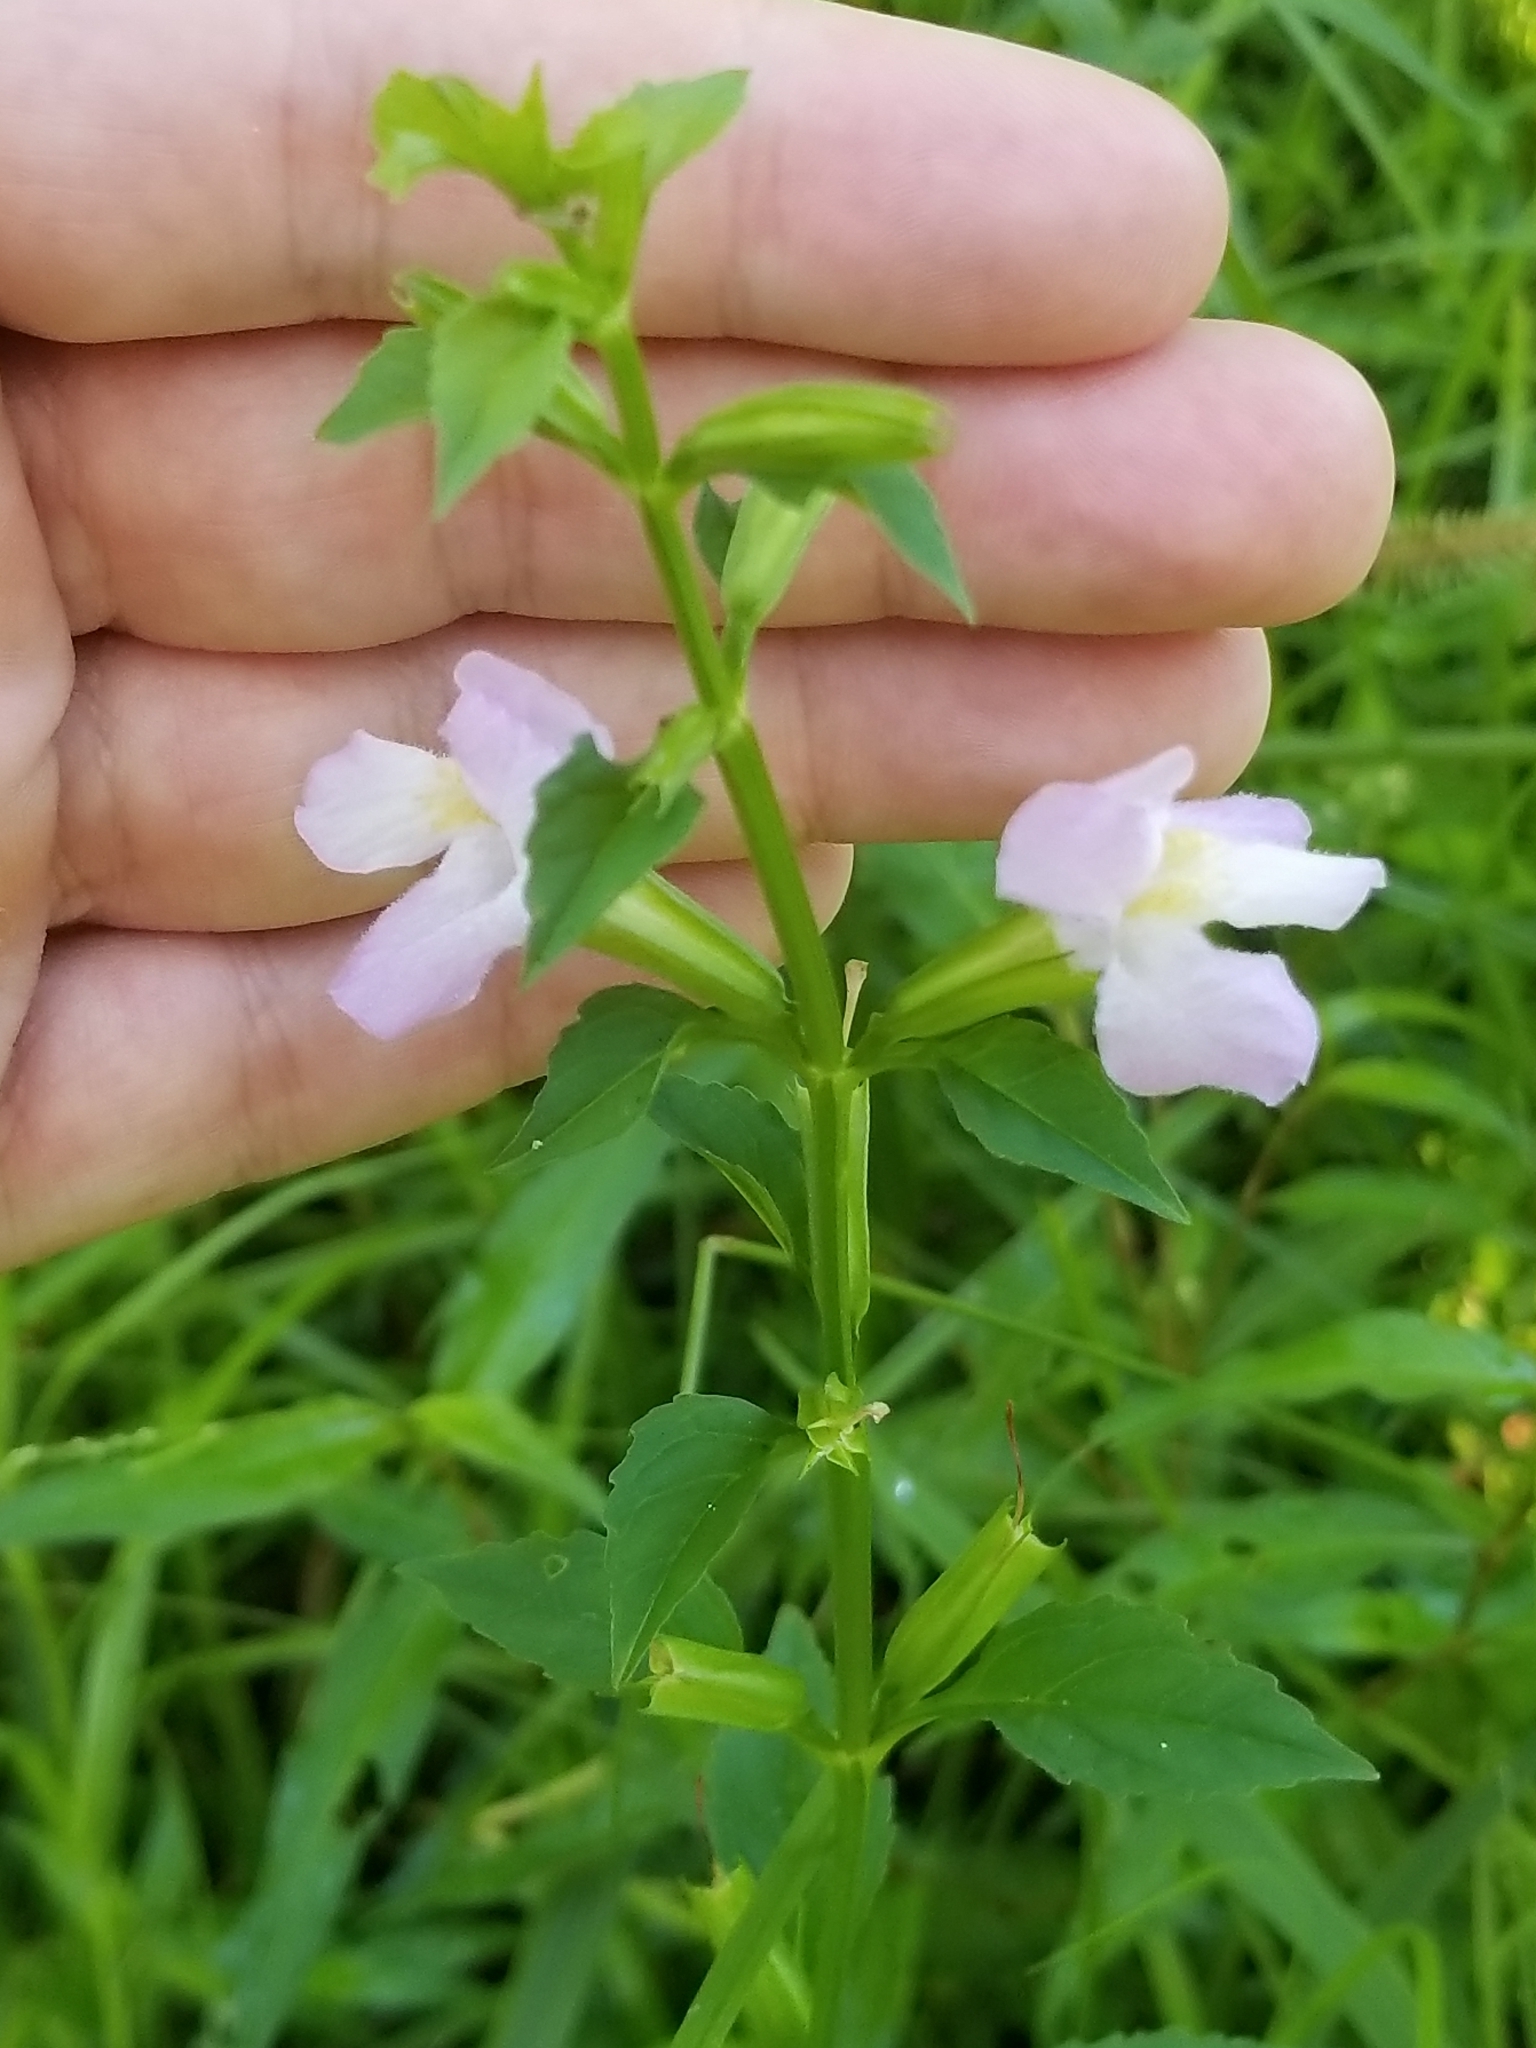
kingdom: Plantae
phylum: Tracheophyta
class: Magnoliopsida
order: Lamiales
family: Phrymaceae
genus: Mimulus
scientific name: Mimulus alatus
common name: Sharp-wing monkey-flower
